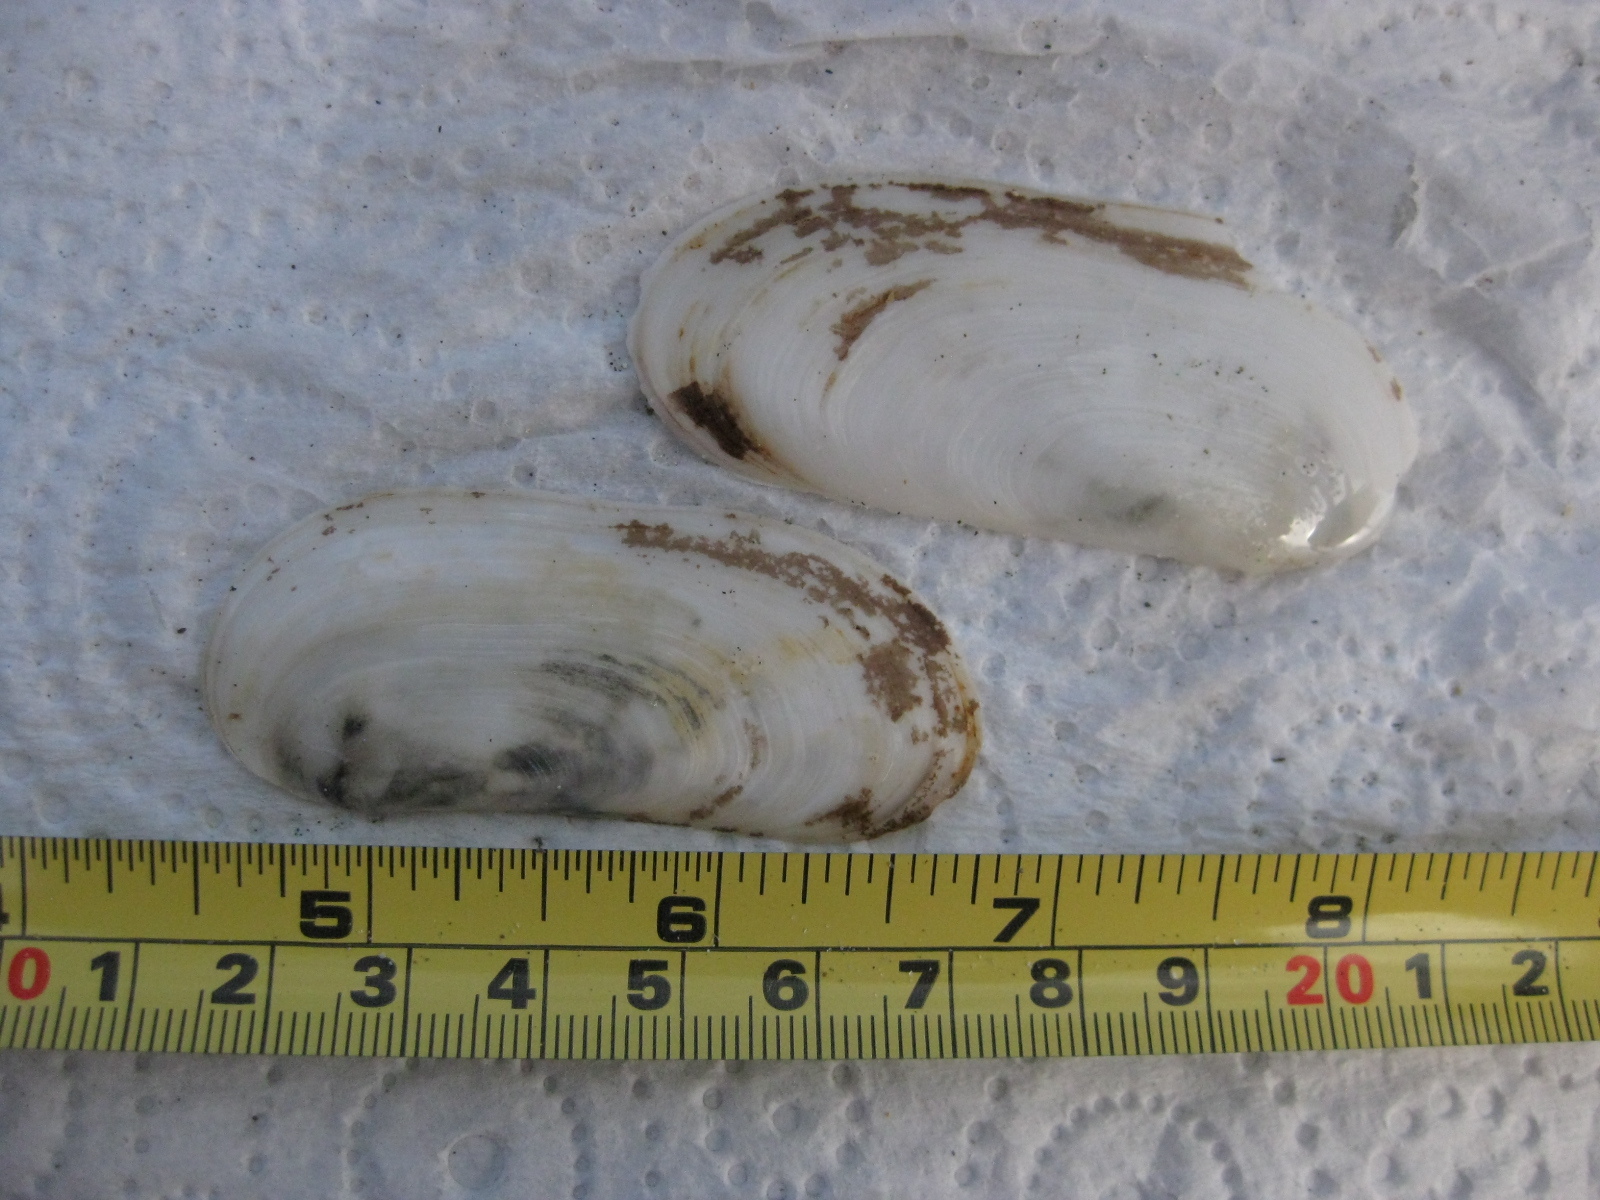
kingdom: Animalia
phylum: Mollusca
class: Bivalvia
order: Venerida
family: Mactridae
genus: Zenatia
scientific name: Zenatia acinaces
